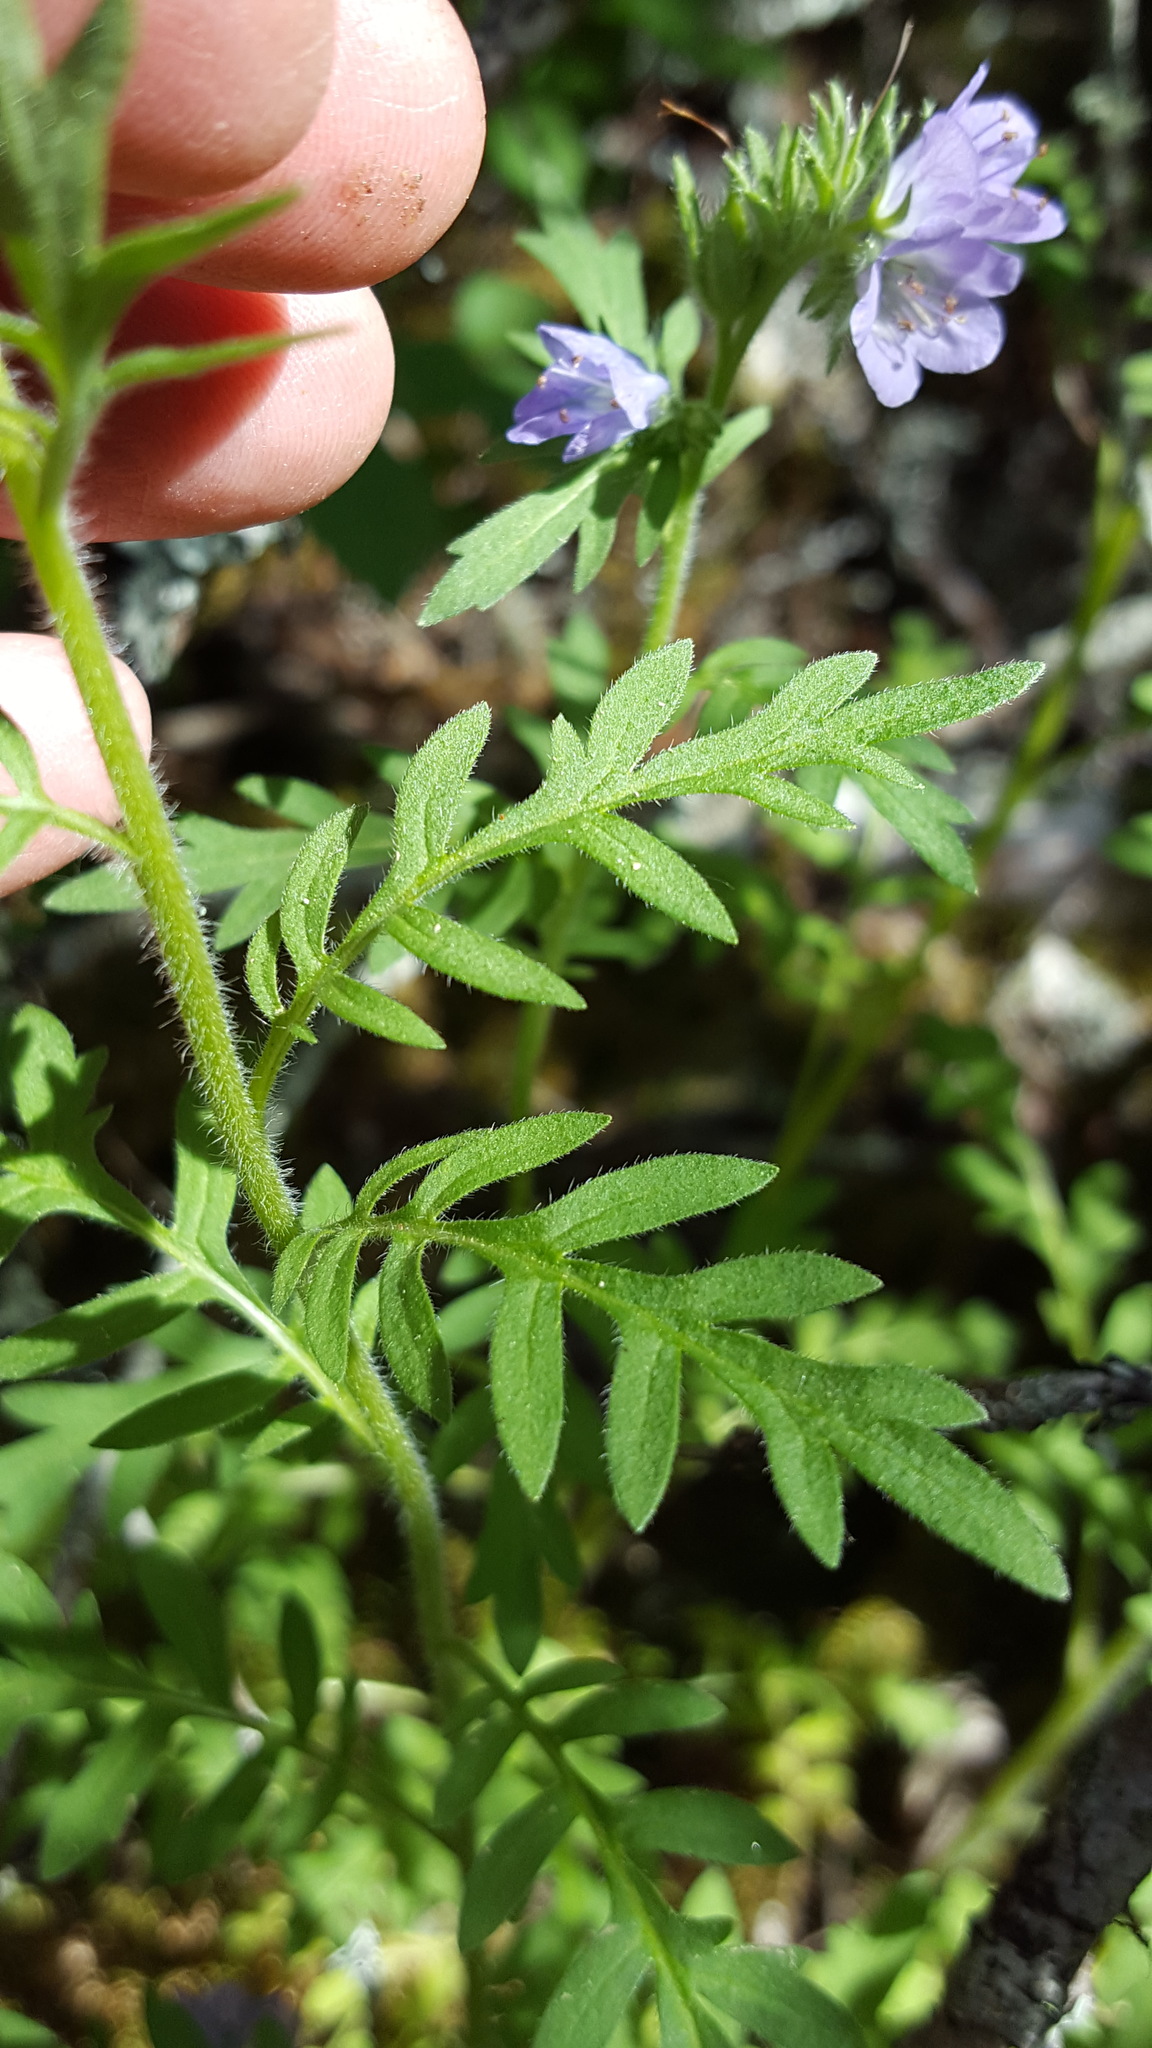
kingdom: Plantae
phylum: Tracheophyta
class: Magnoliopsida
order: Boraginales
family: Hydrophyllaceae
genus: Phacelia
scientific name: Phacelia franklinii
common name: Franklin's phacelia
